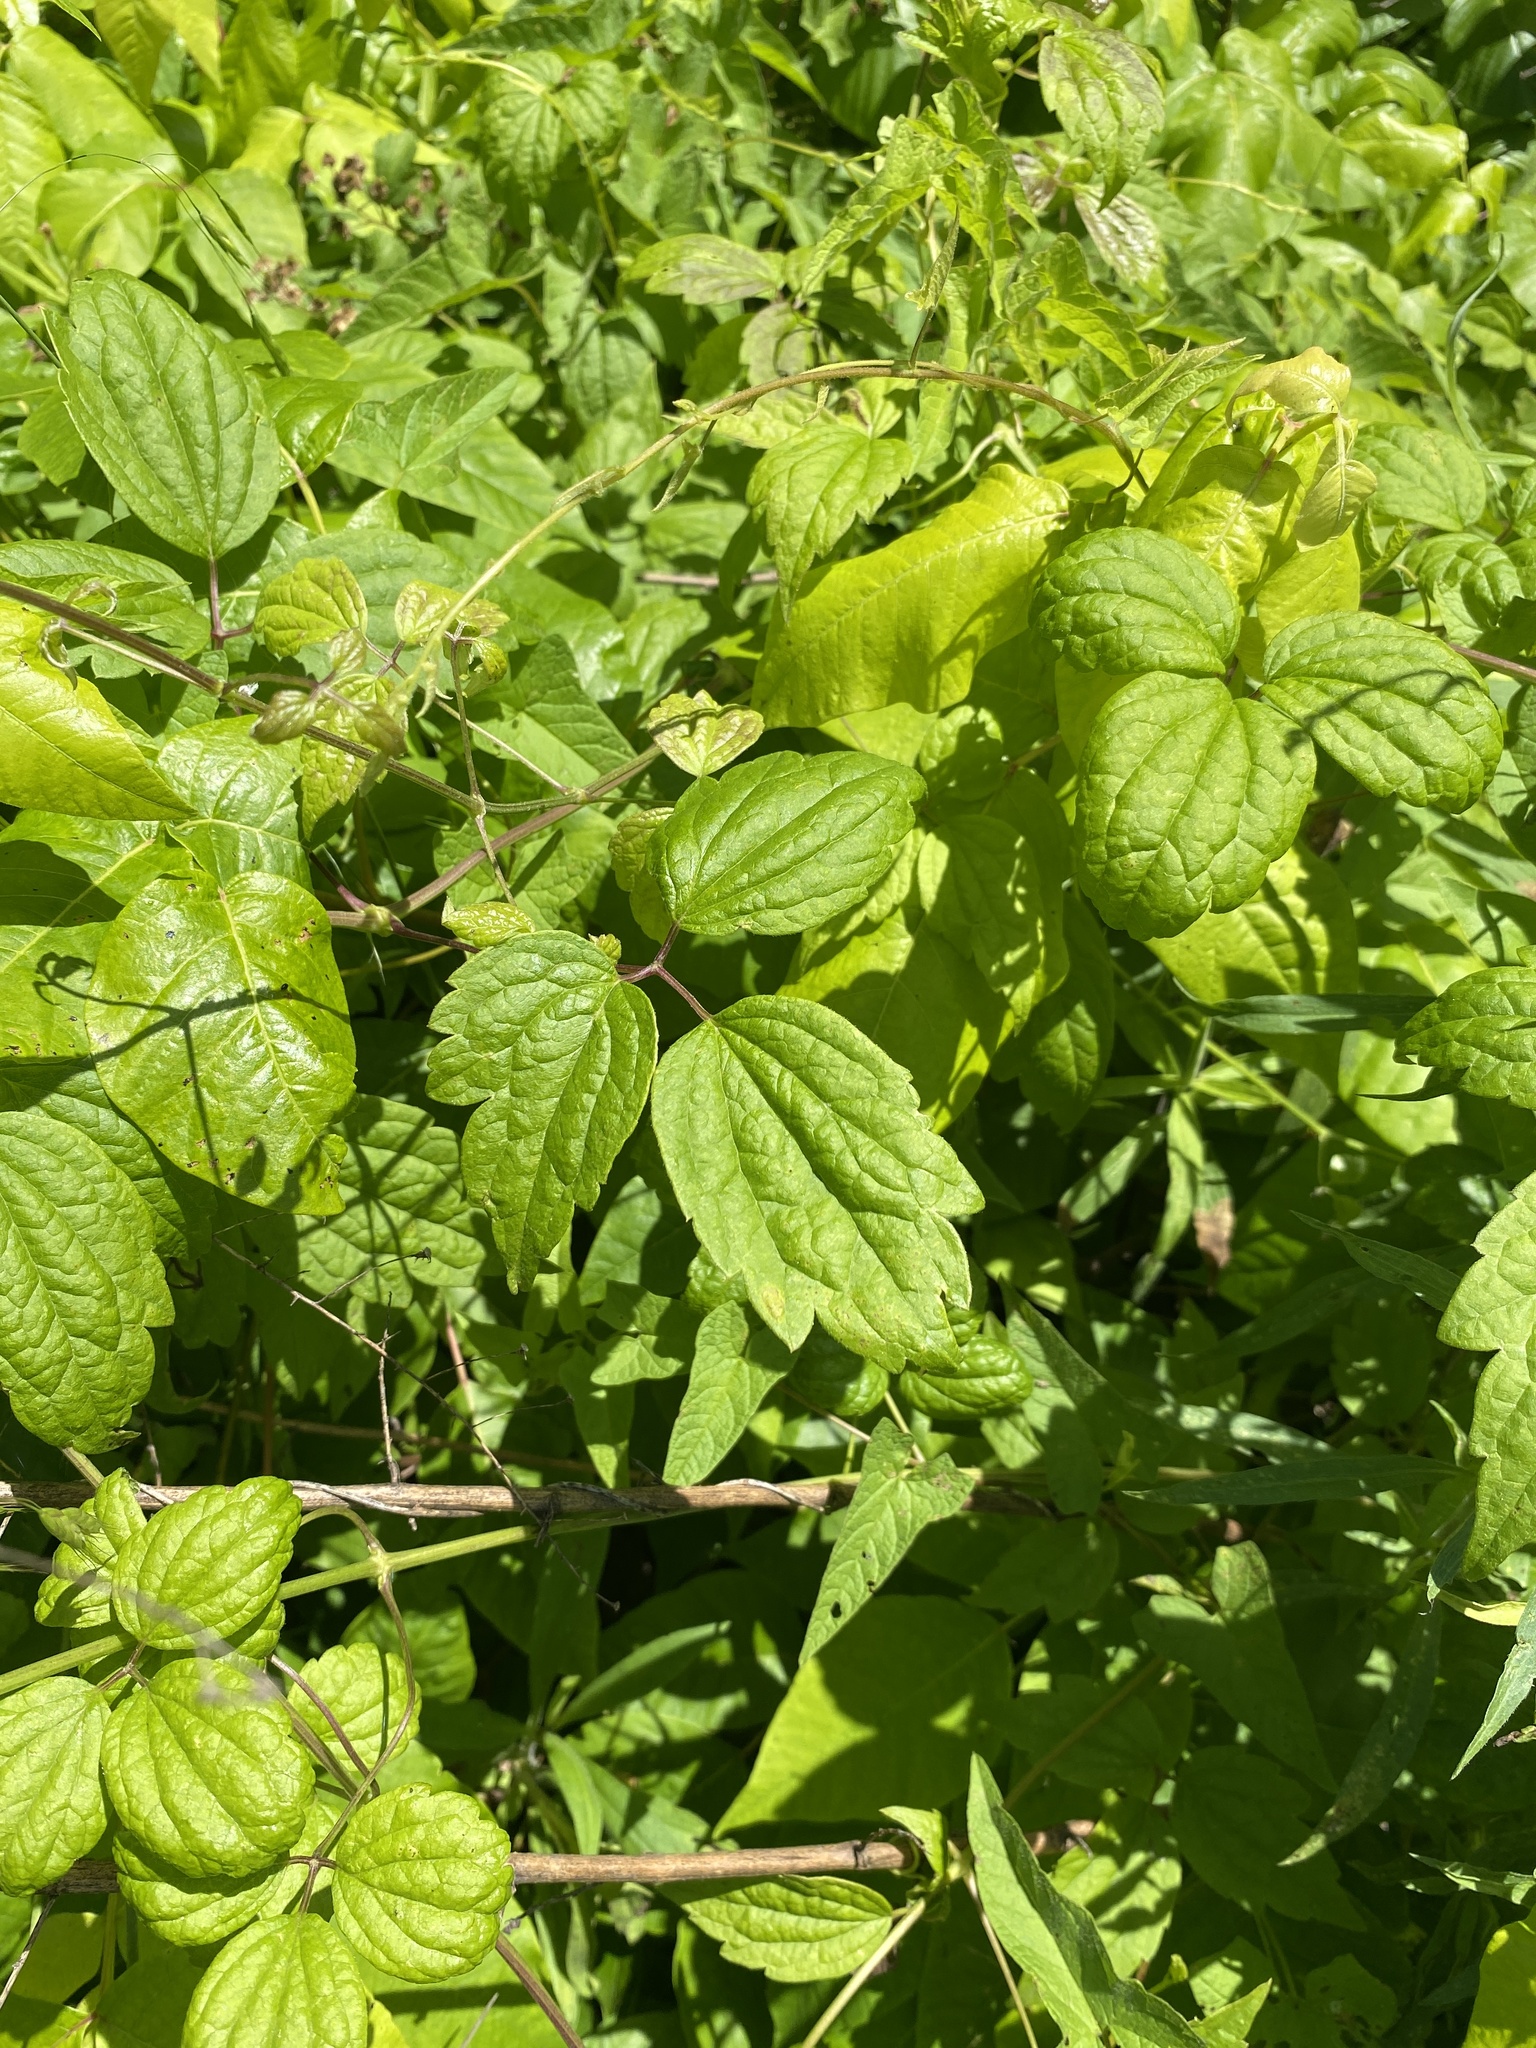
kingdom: Plantae
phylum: Tracheophyta
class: Magnoliopsida
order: Ranunculales
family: Ranunculaceae
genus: Clematis
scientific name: Clematis virginiana
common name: Virgin's-bower
